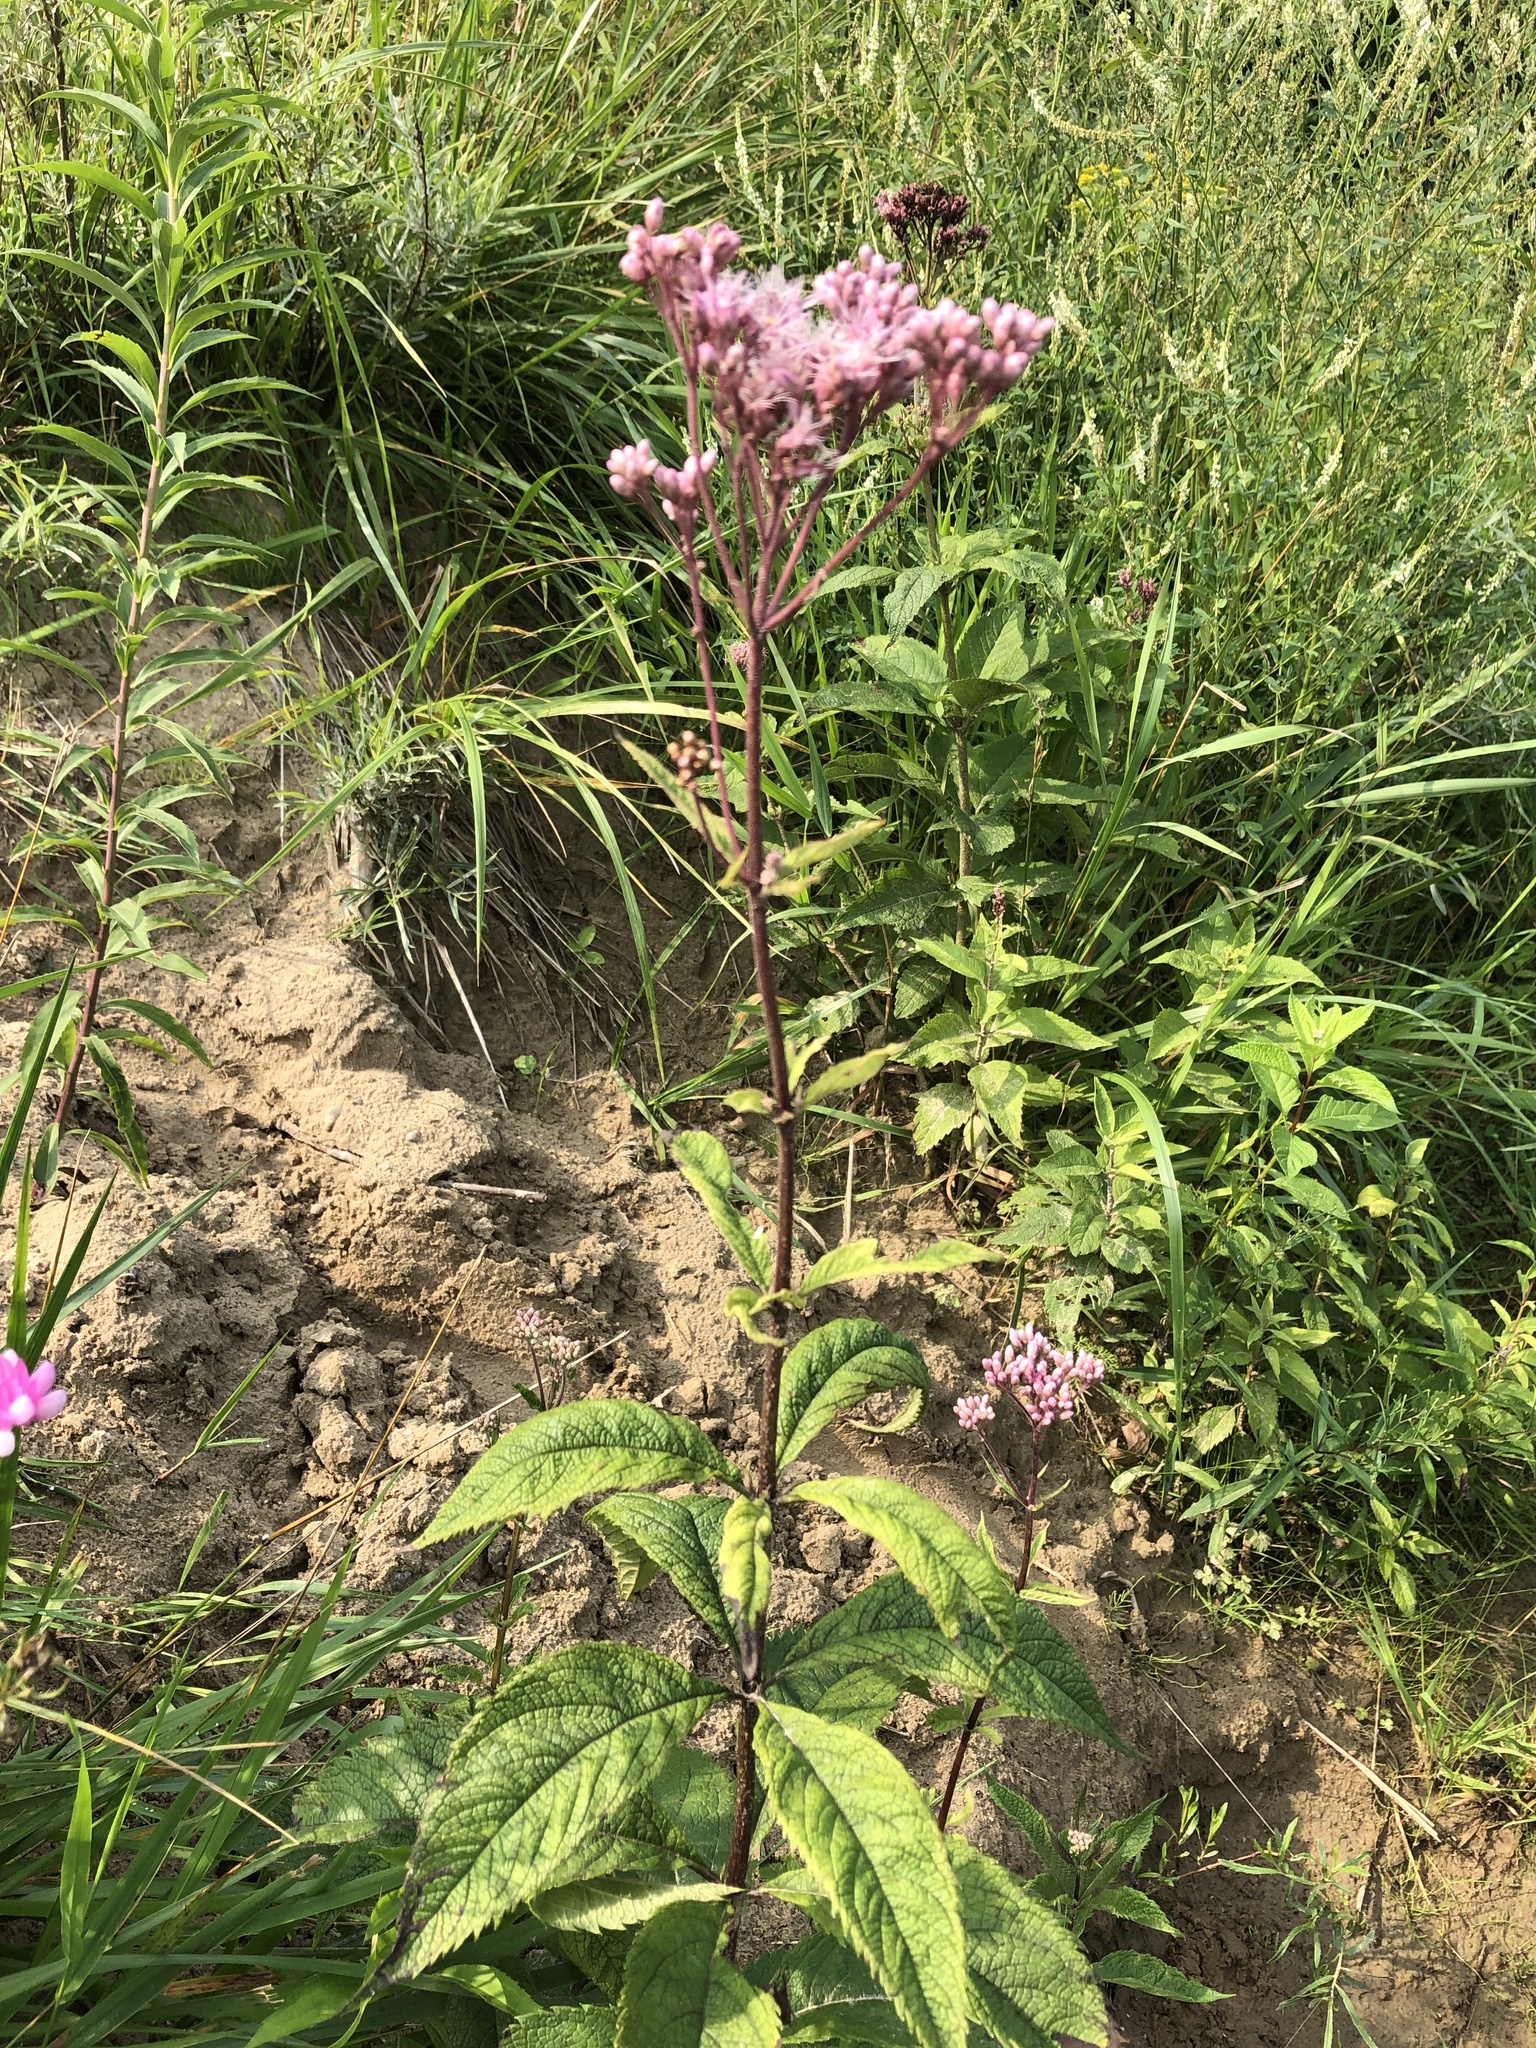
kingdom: Plantae
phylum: Tracheophyta
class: Magnoliopsida
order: Asterales
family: Asteraceae
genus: Eutrochium
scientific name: Eutrochium maculatum
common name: Spotted joe pye weed
